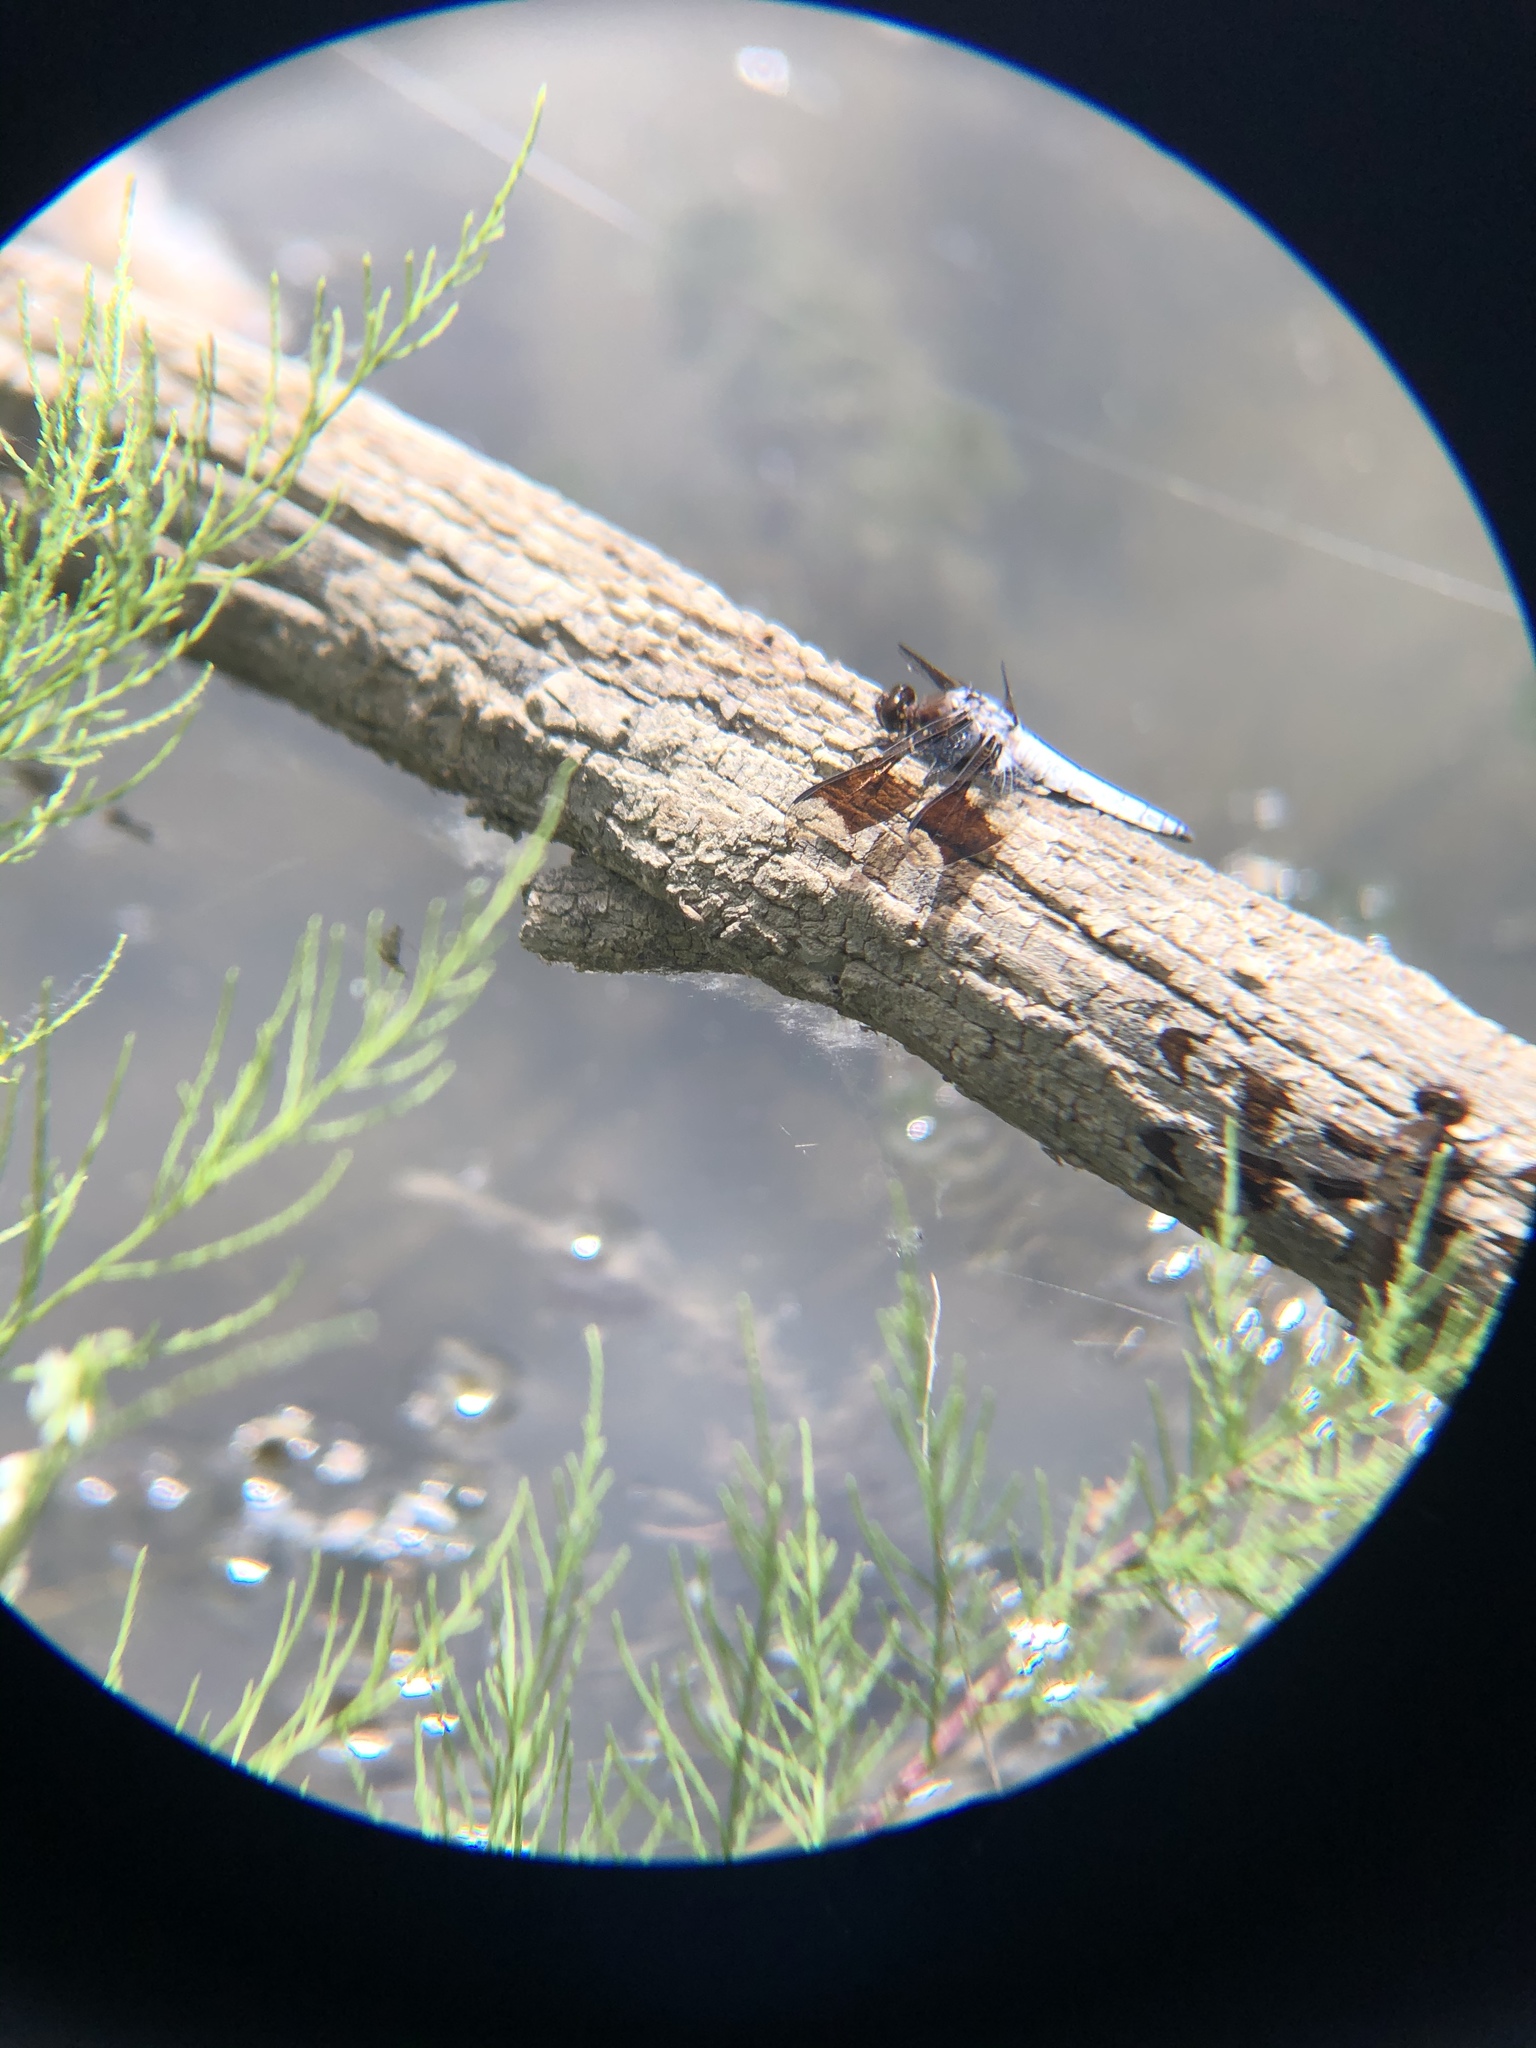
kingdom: Animalia
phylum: Arthropoda
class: Insecta
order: Odonata
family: Libellulidae
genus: Plathemis
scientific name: Plathemis lydia
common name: Common whitetail
